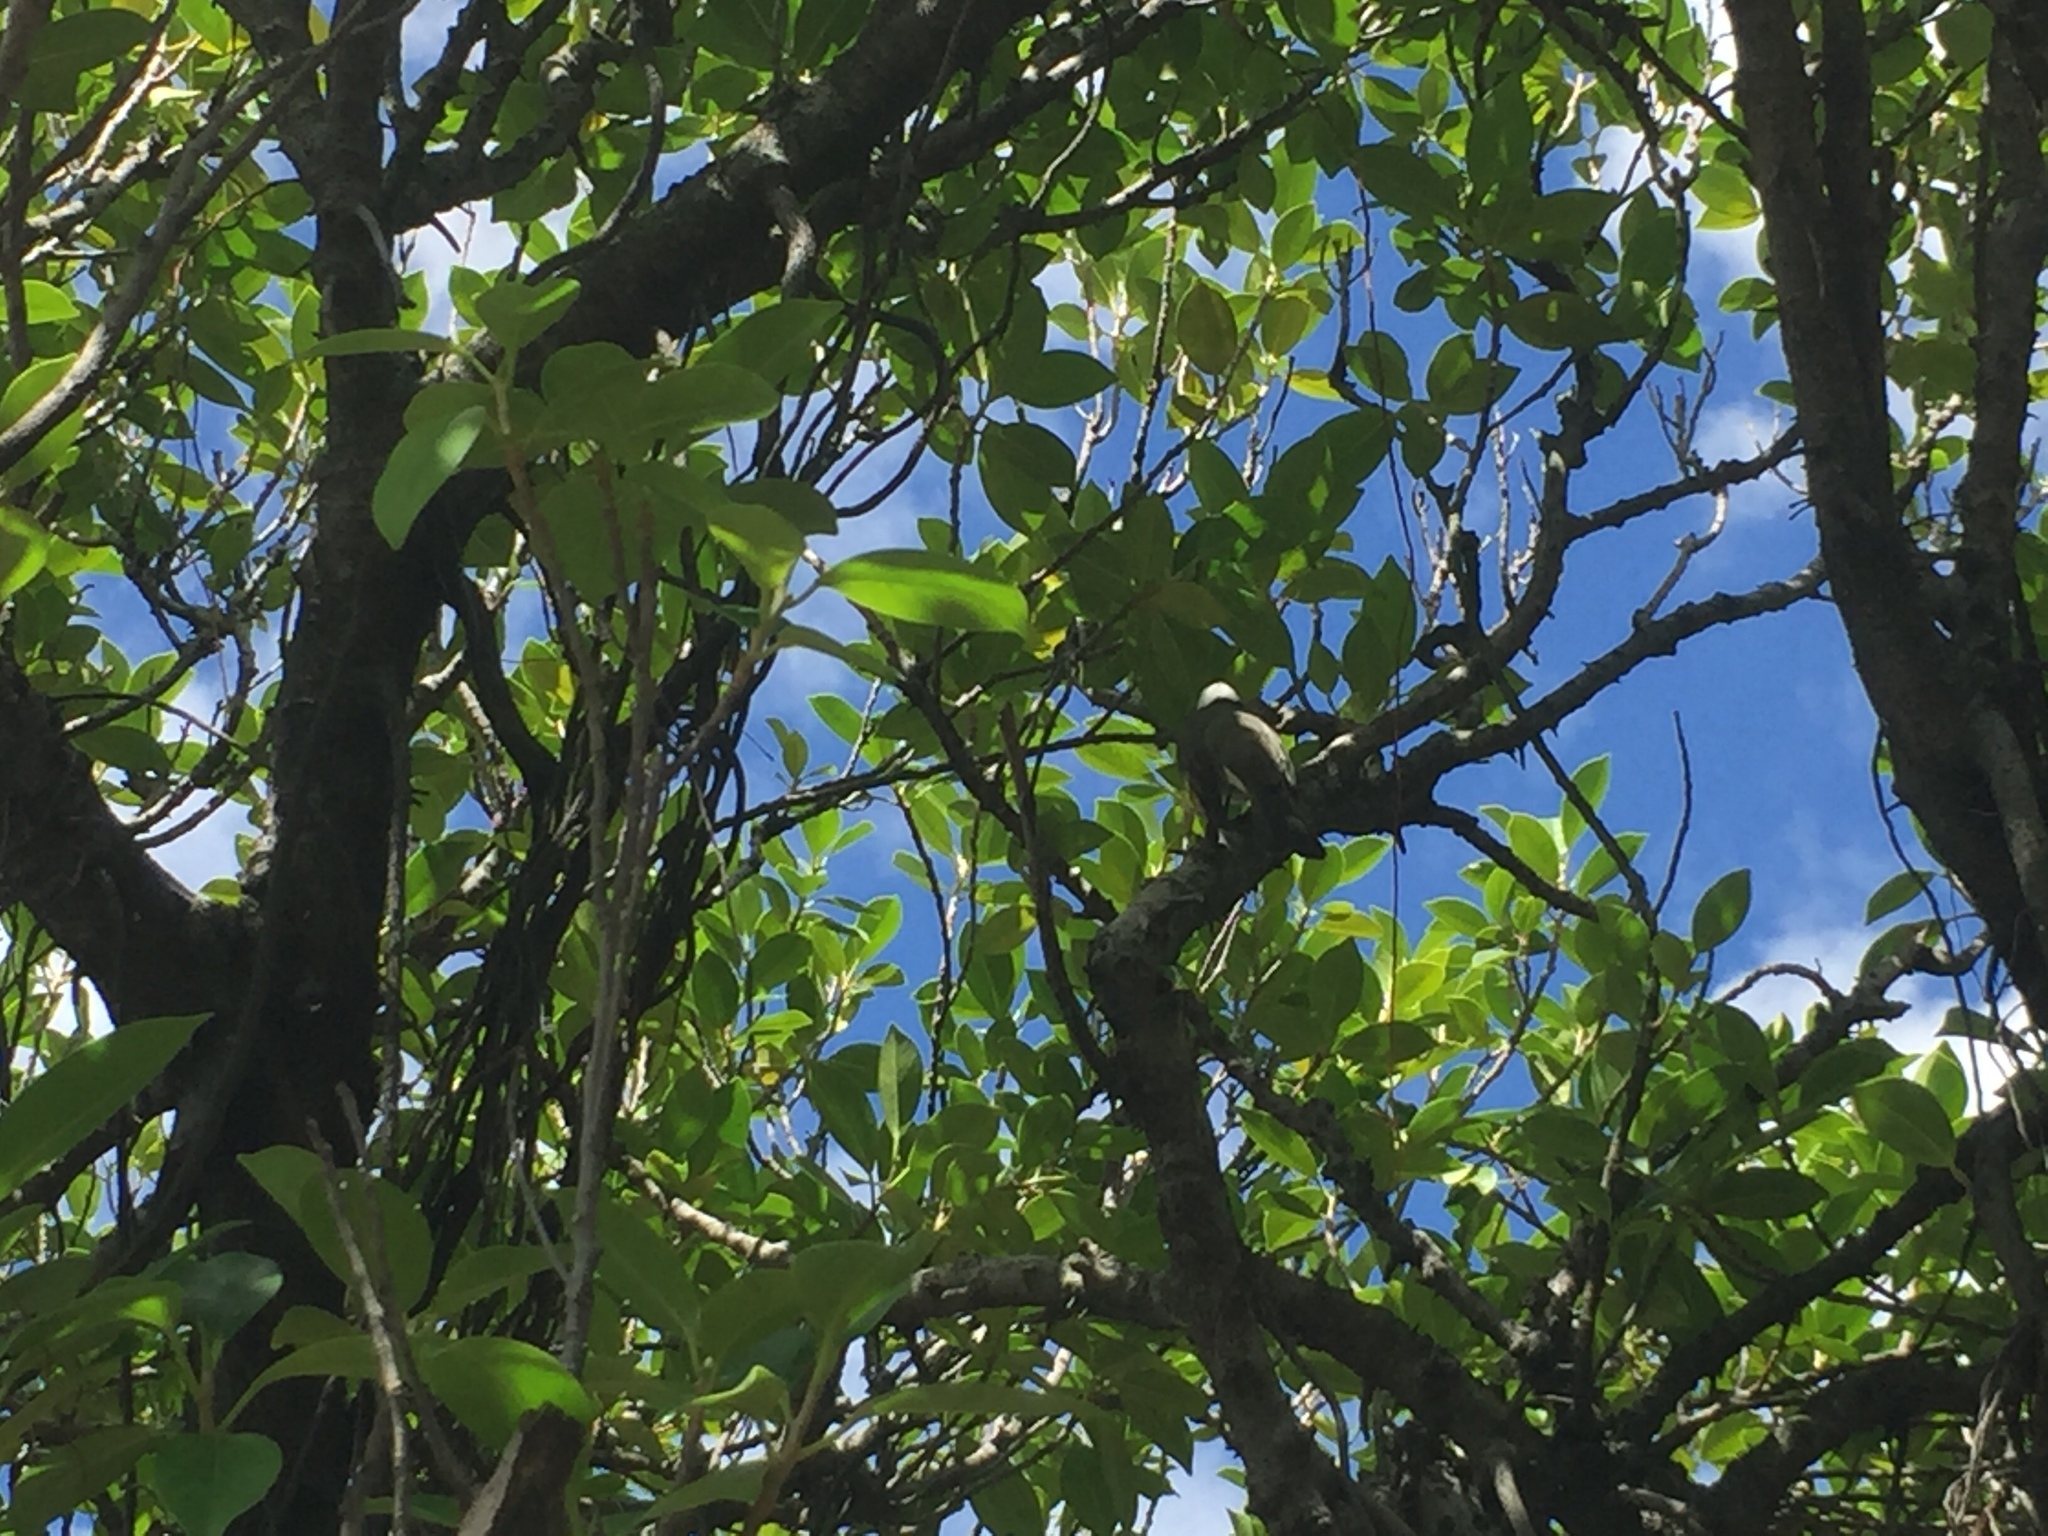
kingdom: Animalia
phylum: Chordata
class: Aves
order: Passeriformes
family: Pycnonotidae
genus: Pycnonotus
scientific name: Pycnonotus sinensis
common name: Light-vented bulbul
